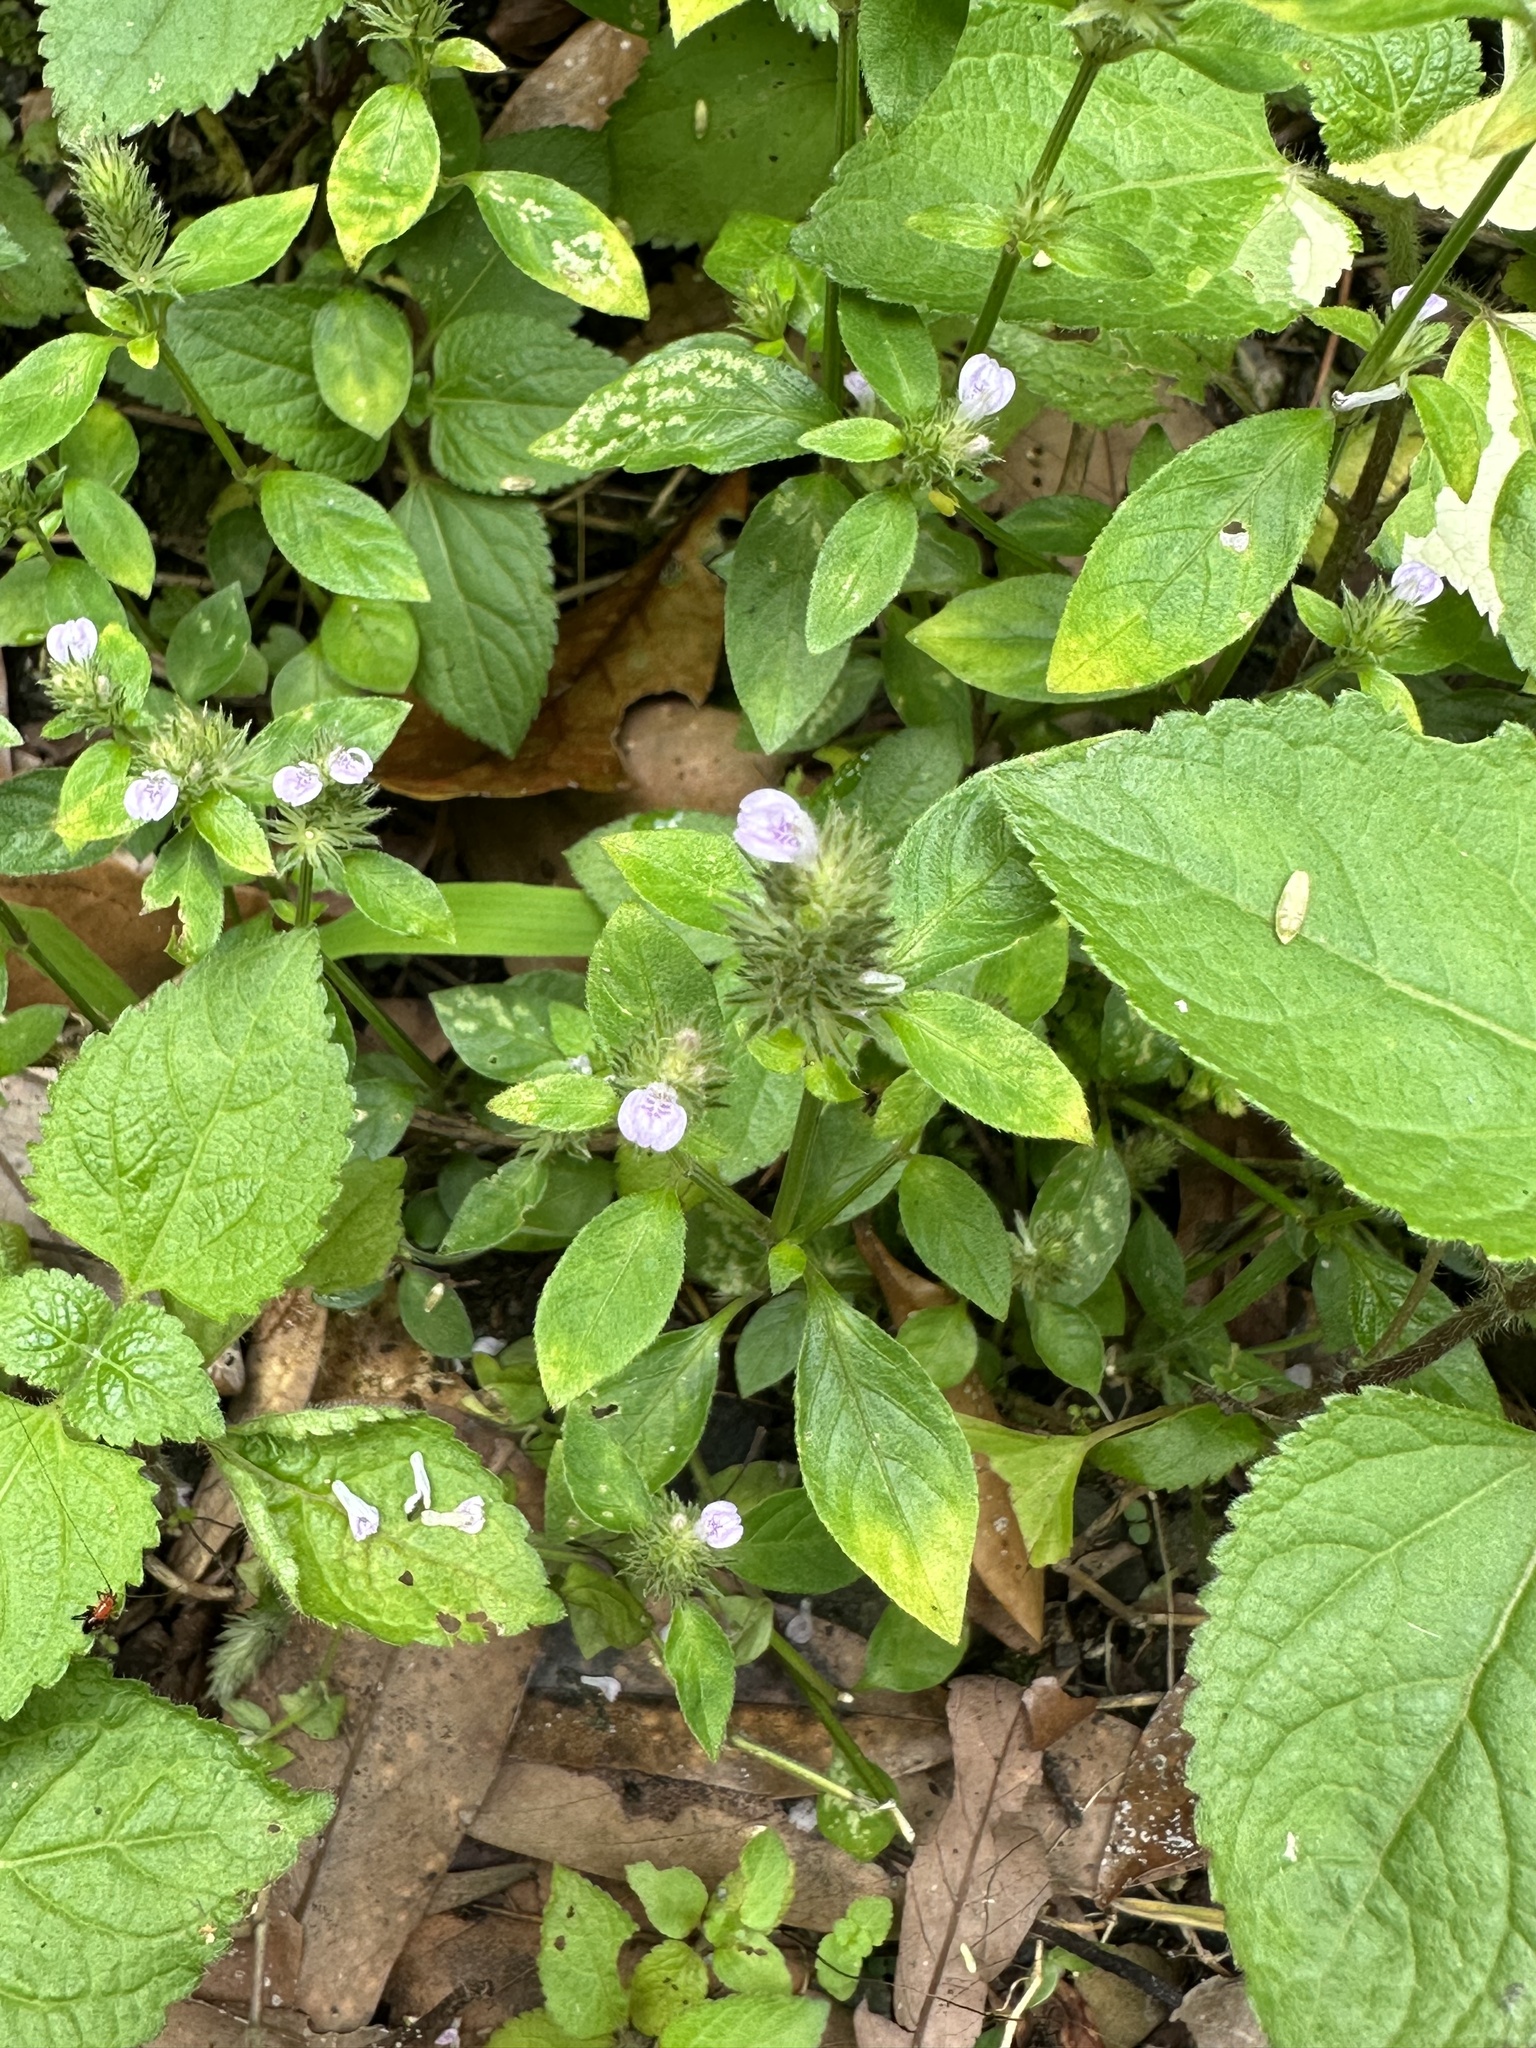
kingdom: Plantae
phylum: Tracheophyta
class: Magnoliopsida
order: Lamiales
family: Acanthaceae
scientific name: Acanthaceae
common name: Acanthaceae
